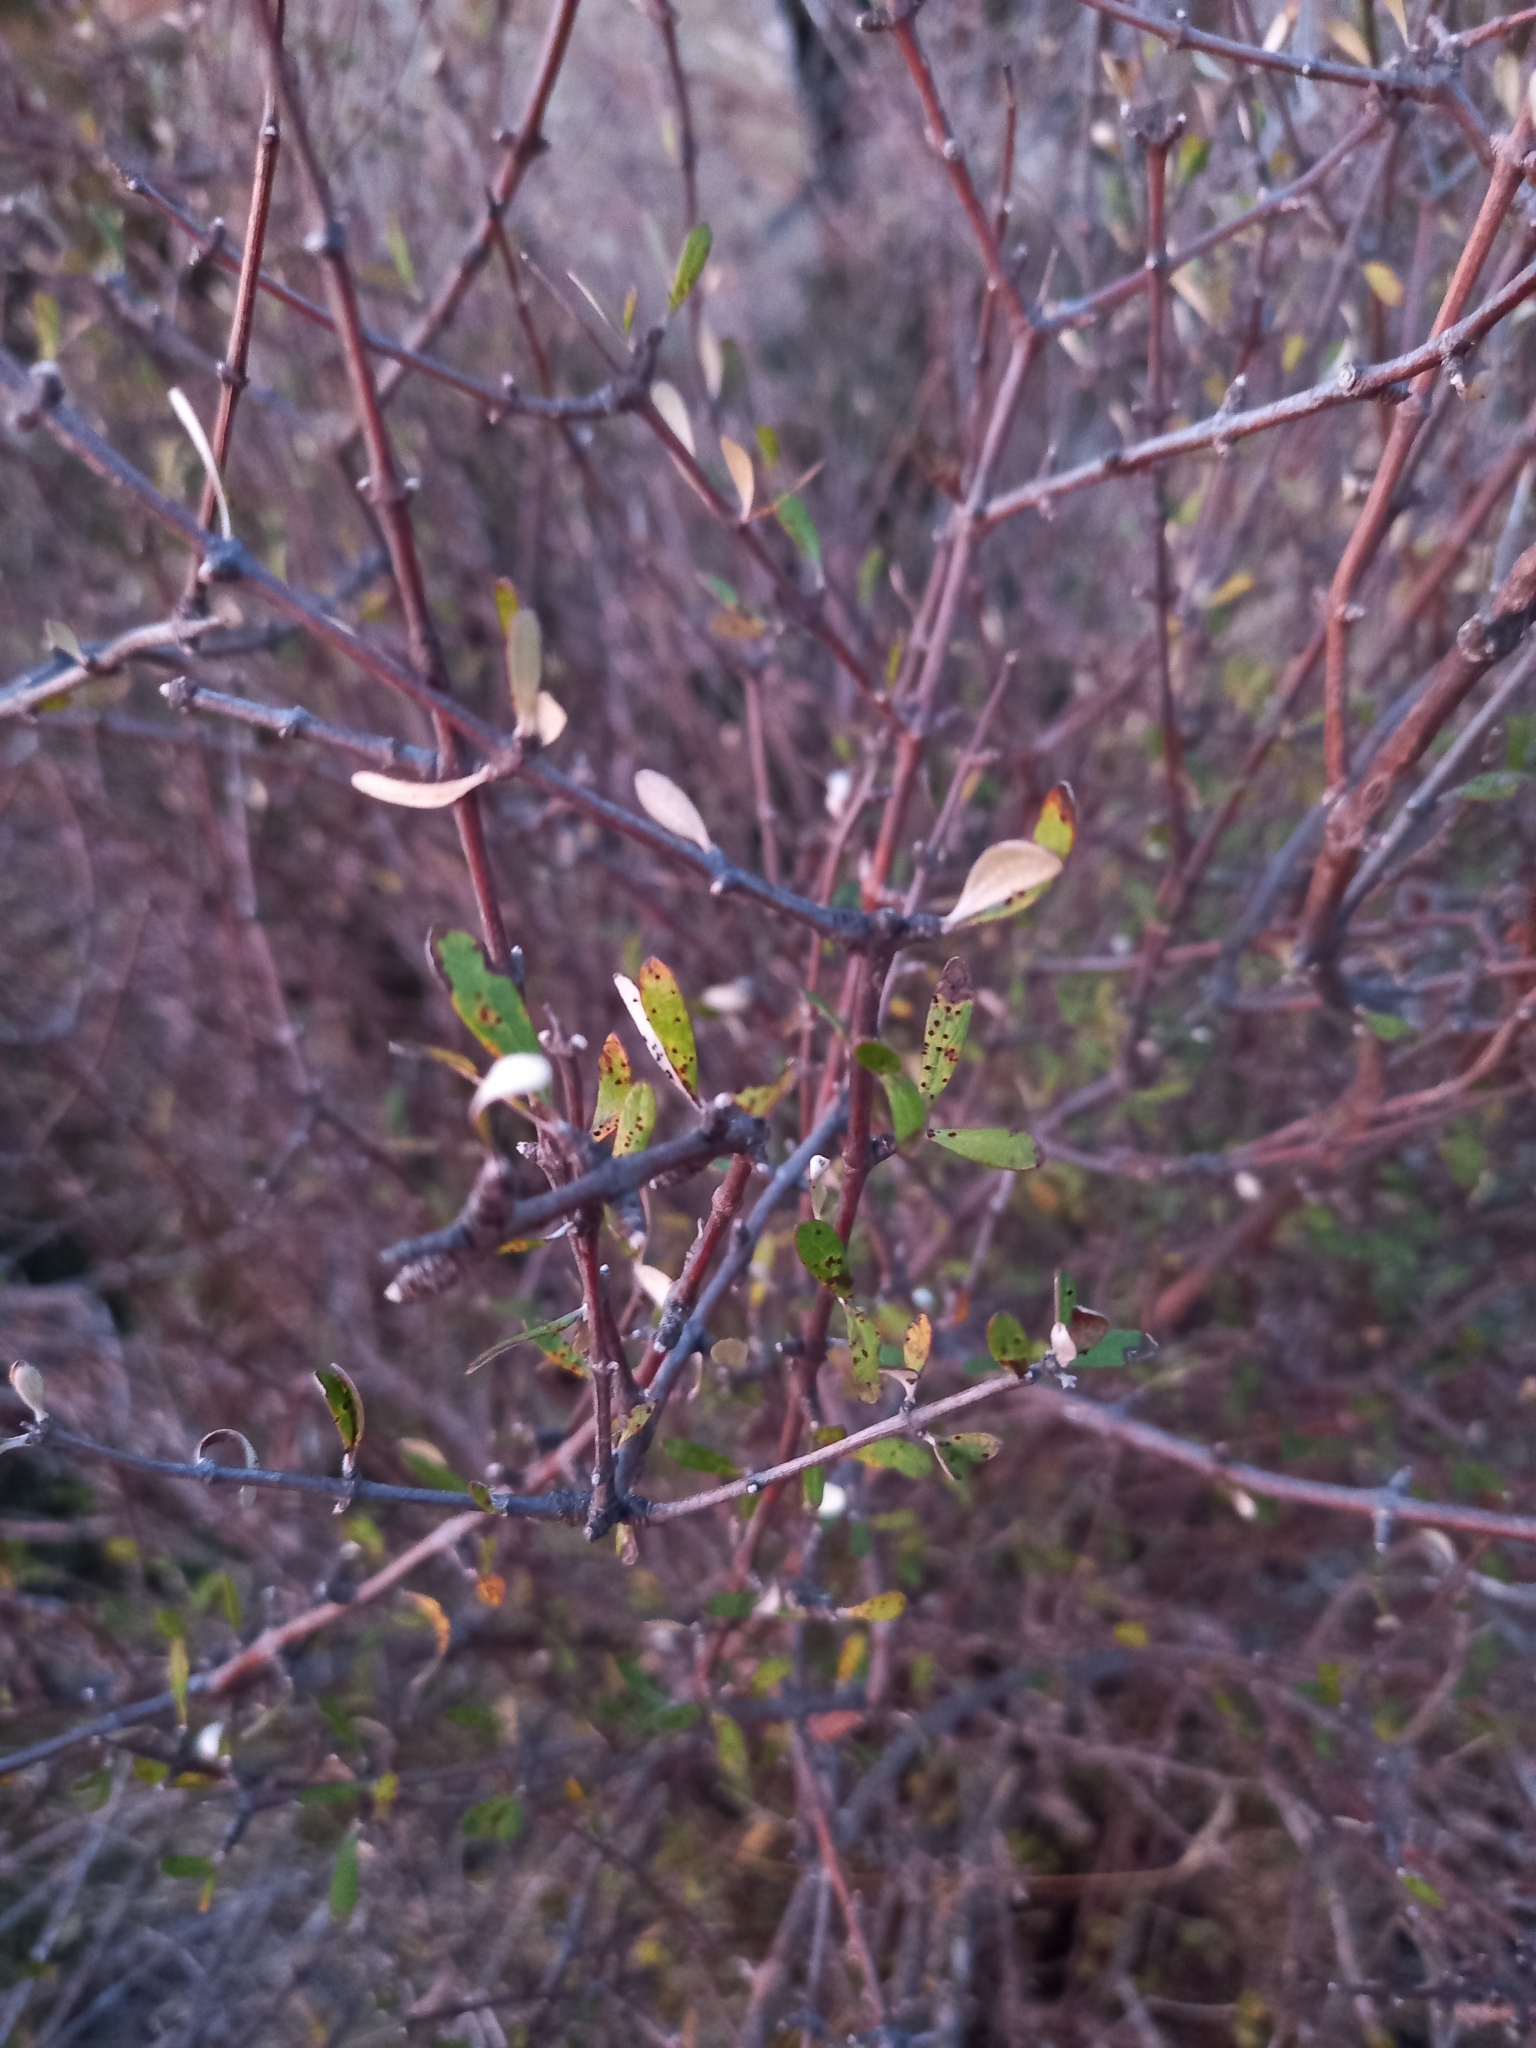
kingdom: Plantae
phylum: Tracheophyta
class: Magnoliopsida
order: Asterales
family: Asteraceae
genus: Olearia
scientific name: Olearia odorata
